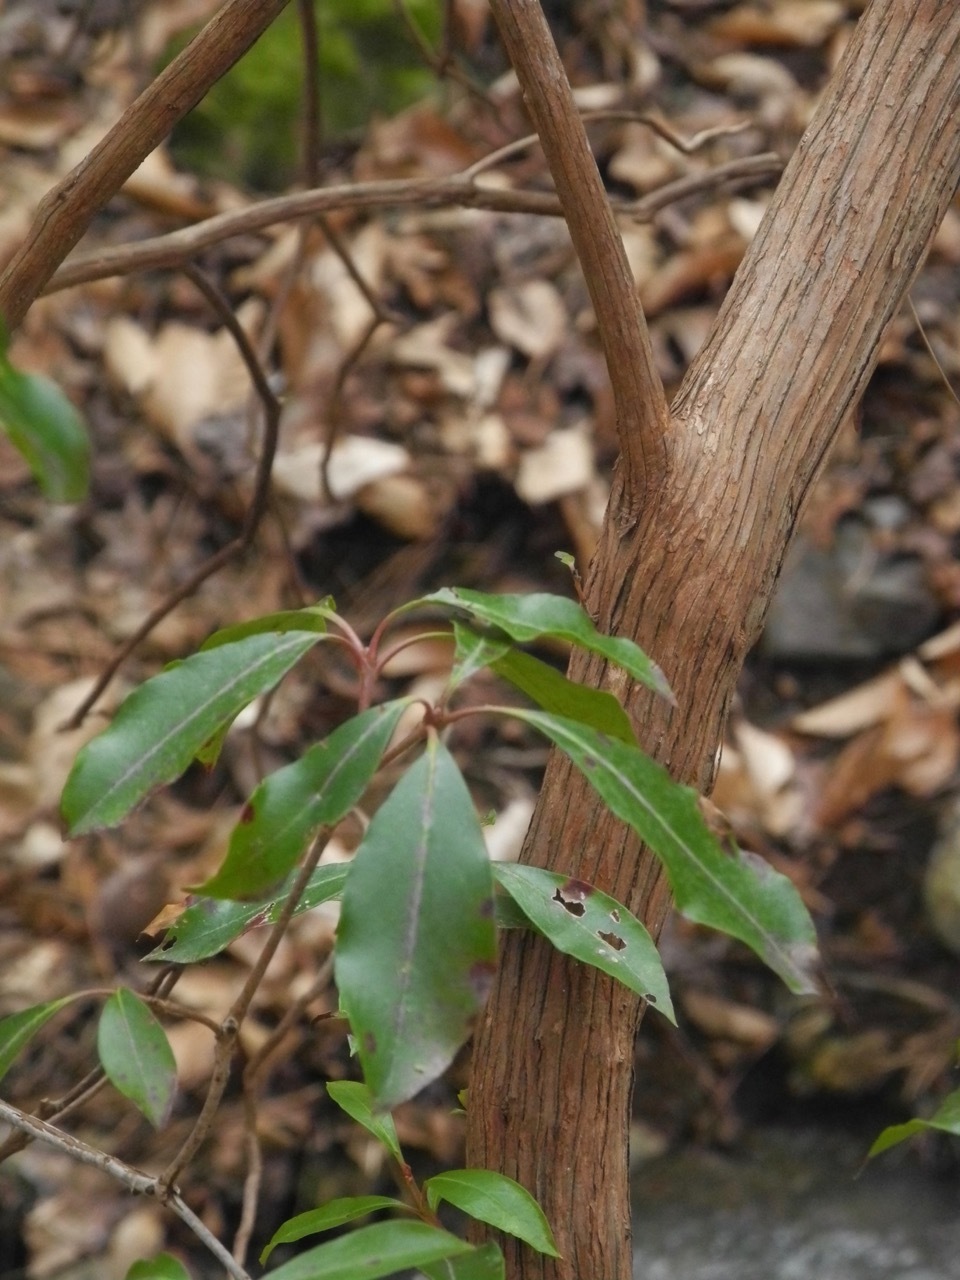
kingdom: Plantae
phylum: Tracheophyta
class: Magnoliopsida
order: Ericales
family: Ericaceae
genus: Kalmia
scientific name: Kalmia latifolia
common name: Mountain-laurel
